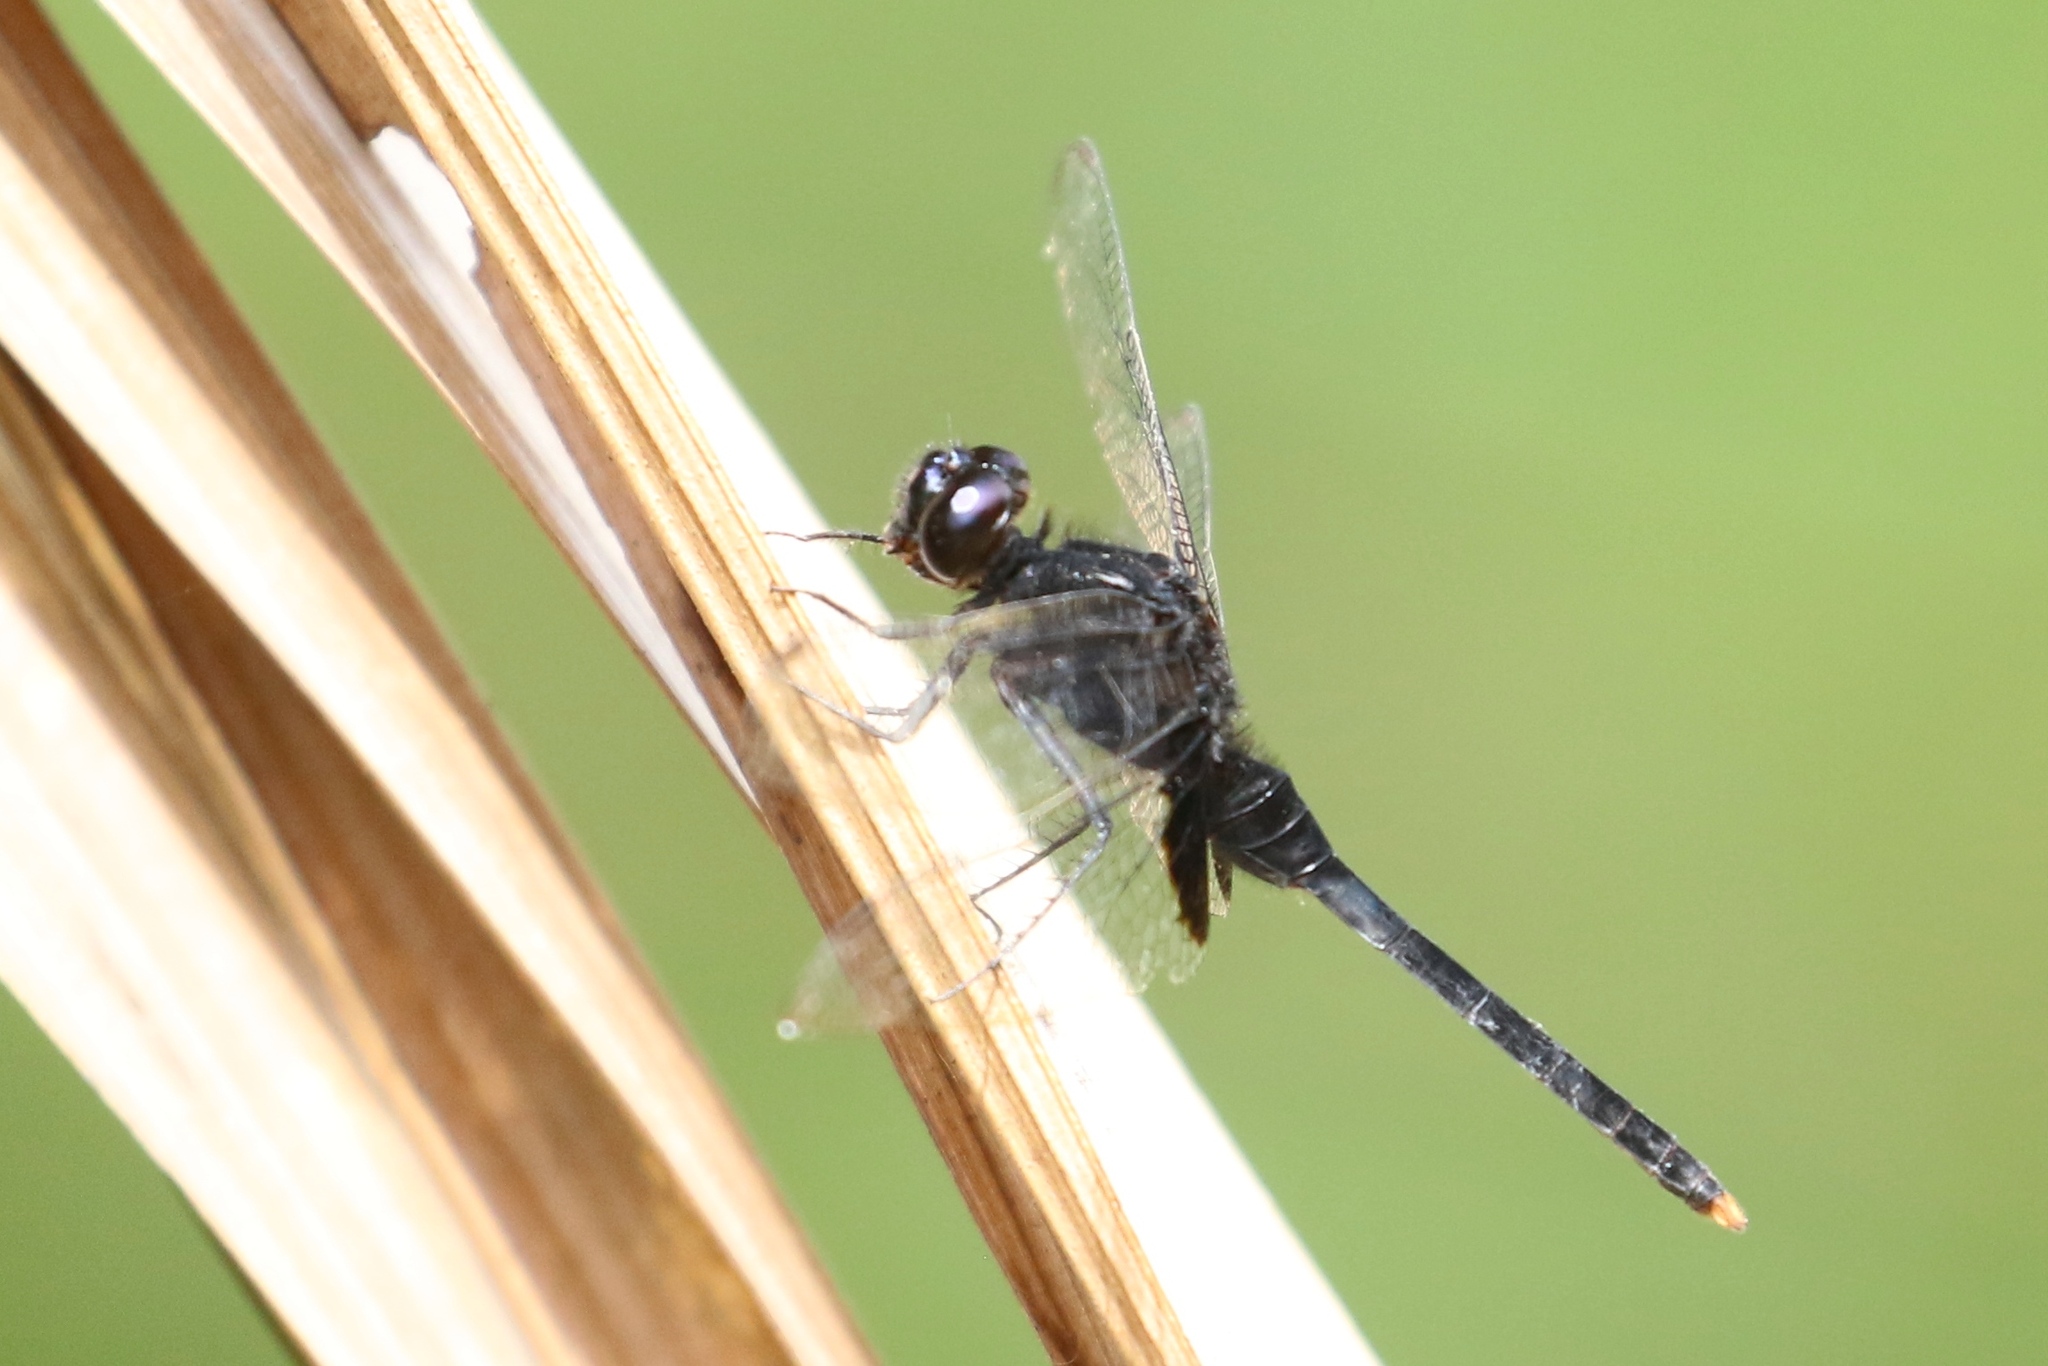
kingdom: Animalia
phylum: Arthropoda
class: Insecta
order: Odonata
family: Libellulidae
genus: Erythemis
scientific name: Erythemis attala
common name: Black pondhawk
